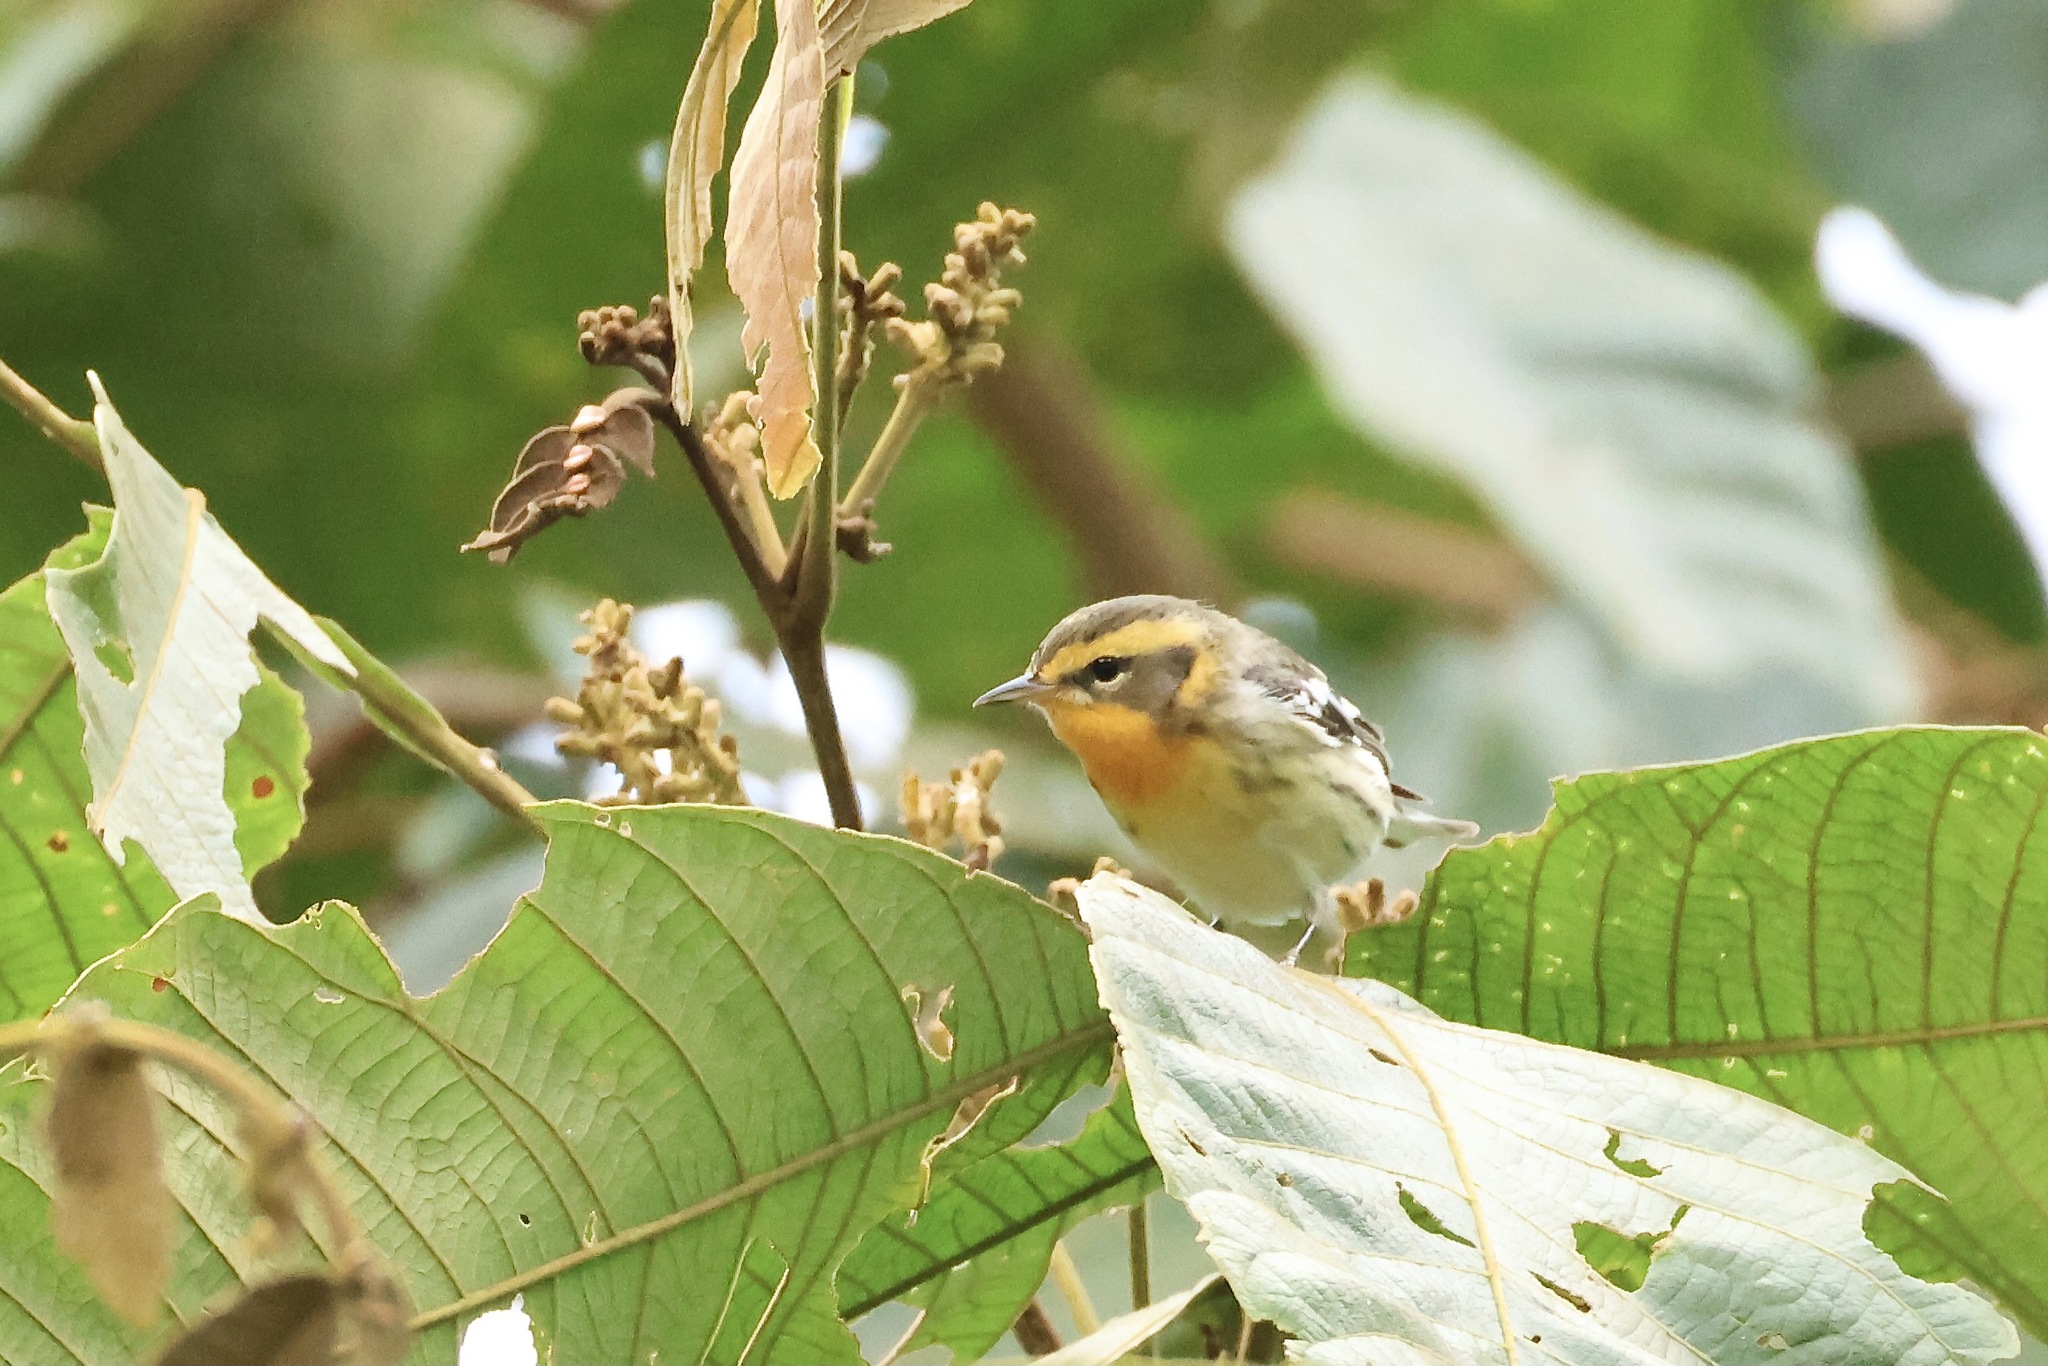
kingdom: Animalia
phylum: Chordata
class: Aves
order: Passeriformes
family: Parulidae
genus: Setophaga
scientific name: Setophaga fusca
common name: Blackburnian warbler
